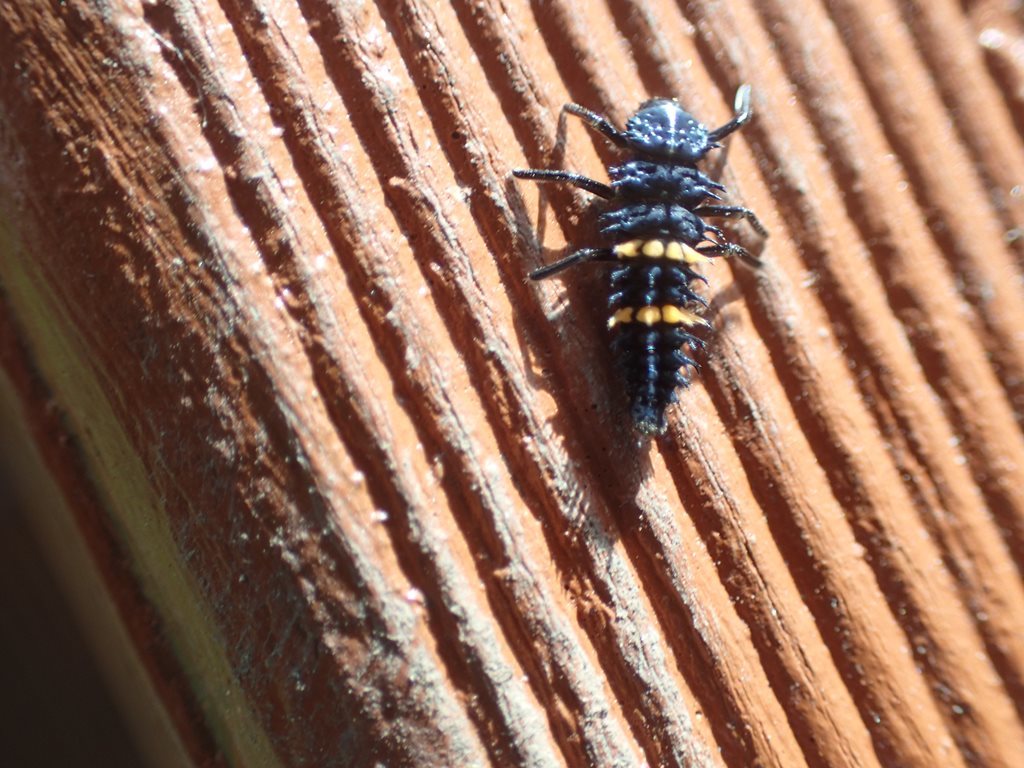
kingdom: Animalia
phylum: Arthropoda
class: Insecta
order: Coleoptera
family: Coccinellidae
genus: Harmonia
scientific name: Harmonia conformis
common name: Common spotted ladybird beetle
